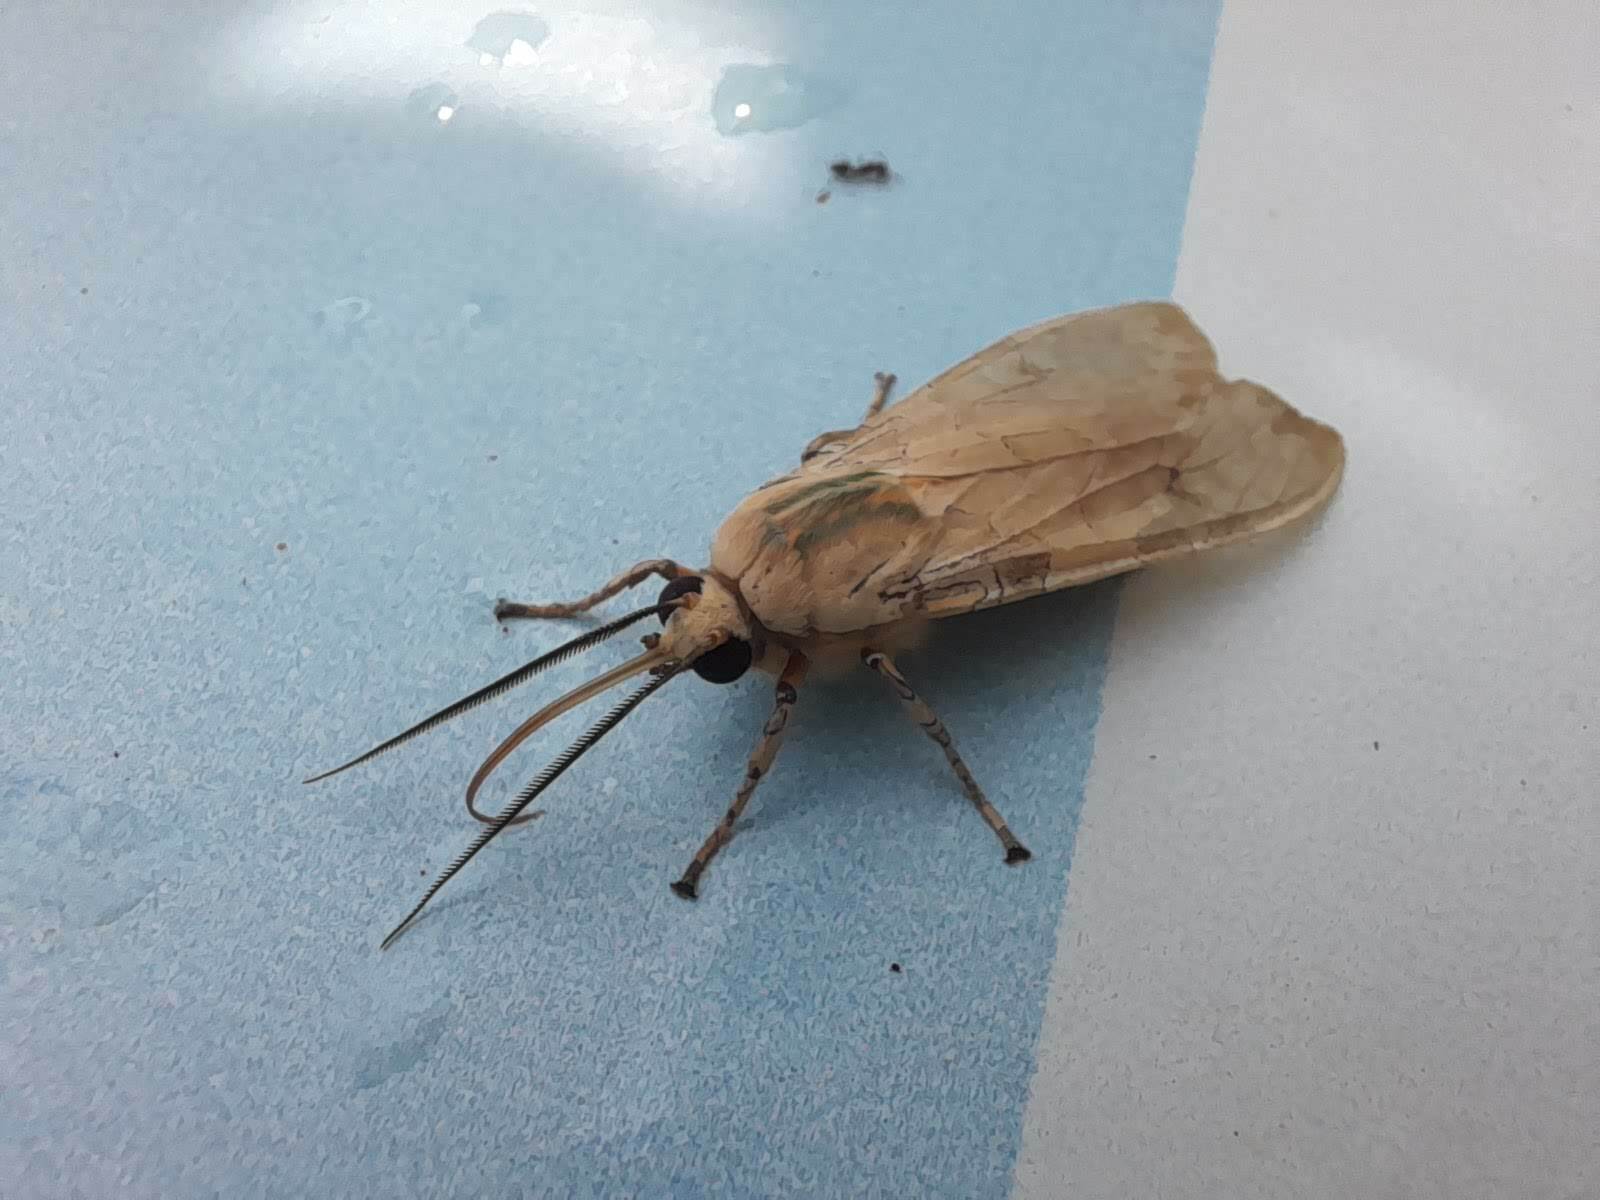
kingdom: Animalia
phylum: Arthropoda
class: Insecta
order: Lepidoptera
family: Erebidae
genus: Halysidota
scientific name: Halysidota ruscheweyhi
